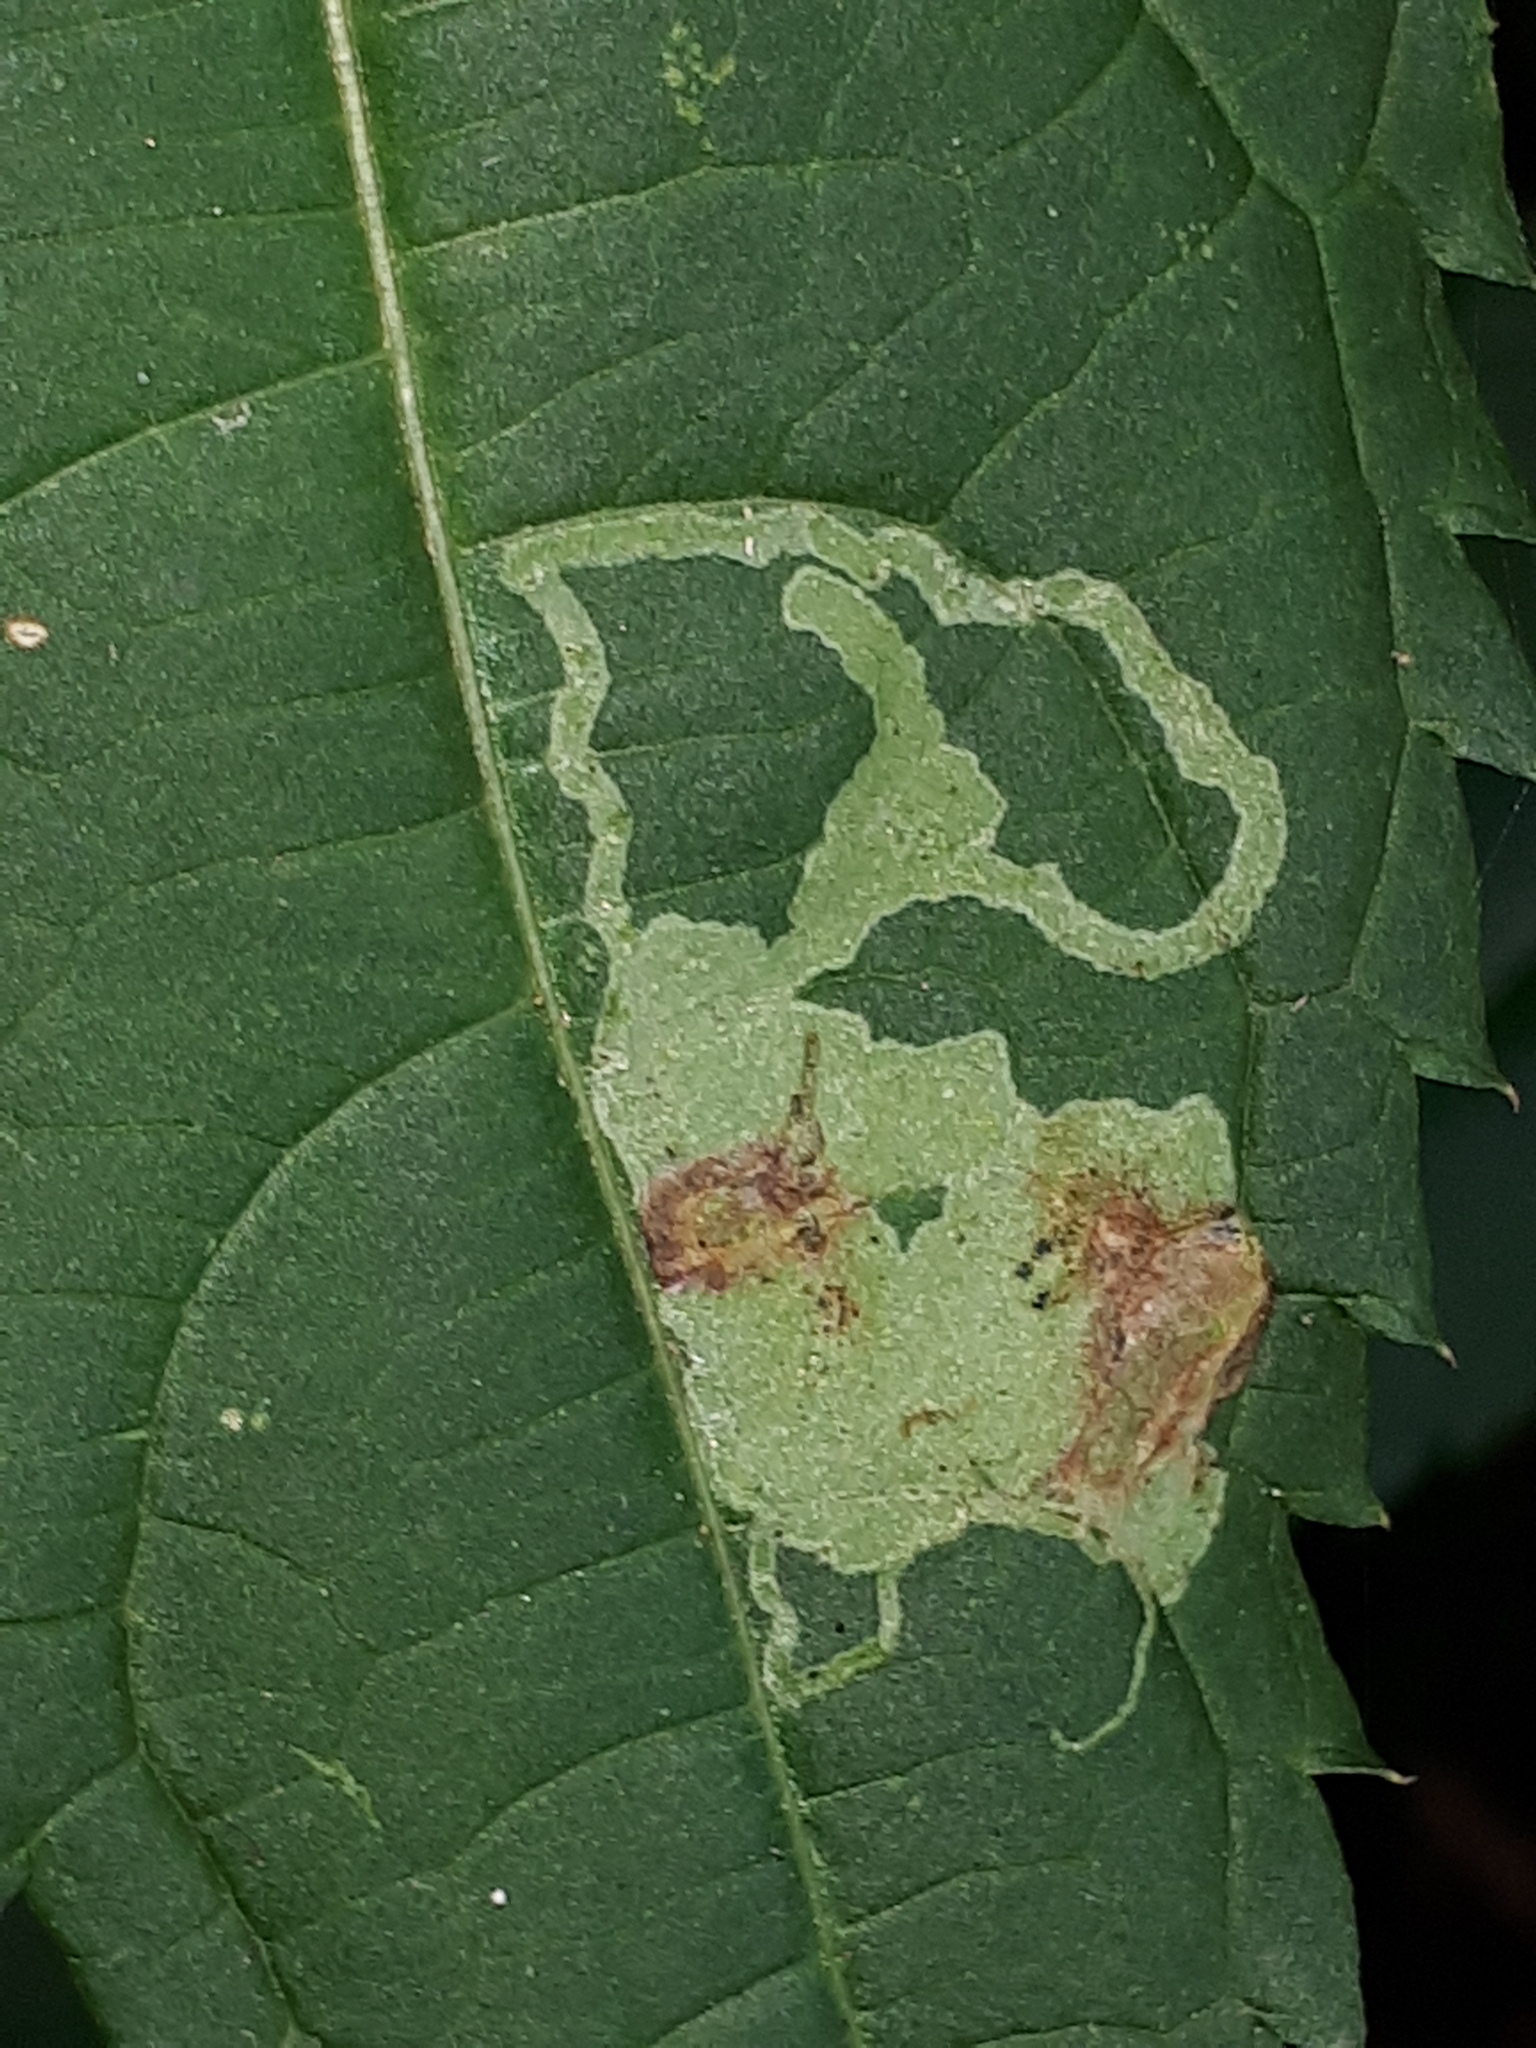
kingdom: Animalia
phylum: Arthropoda
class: Insecta
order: Diptera
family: Agromyzidae
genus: Phytoliriomyza
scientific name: Phytoliriomyza melampyga
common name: Jewelweed leaf-miner fly
